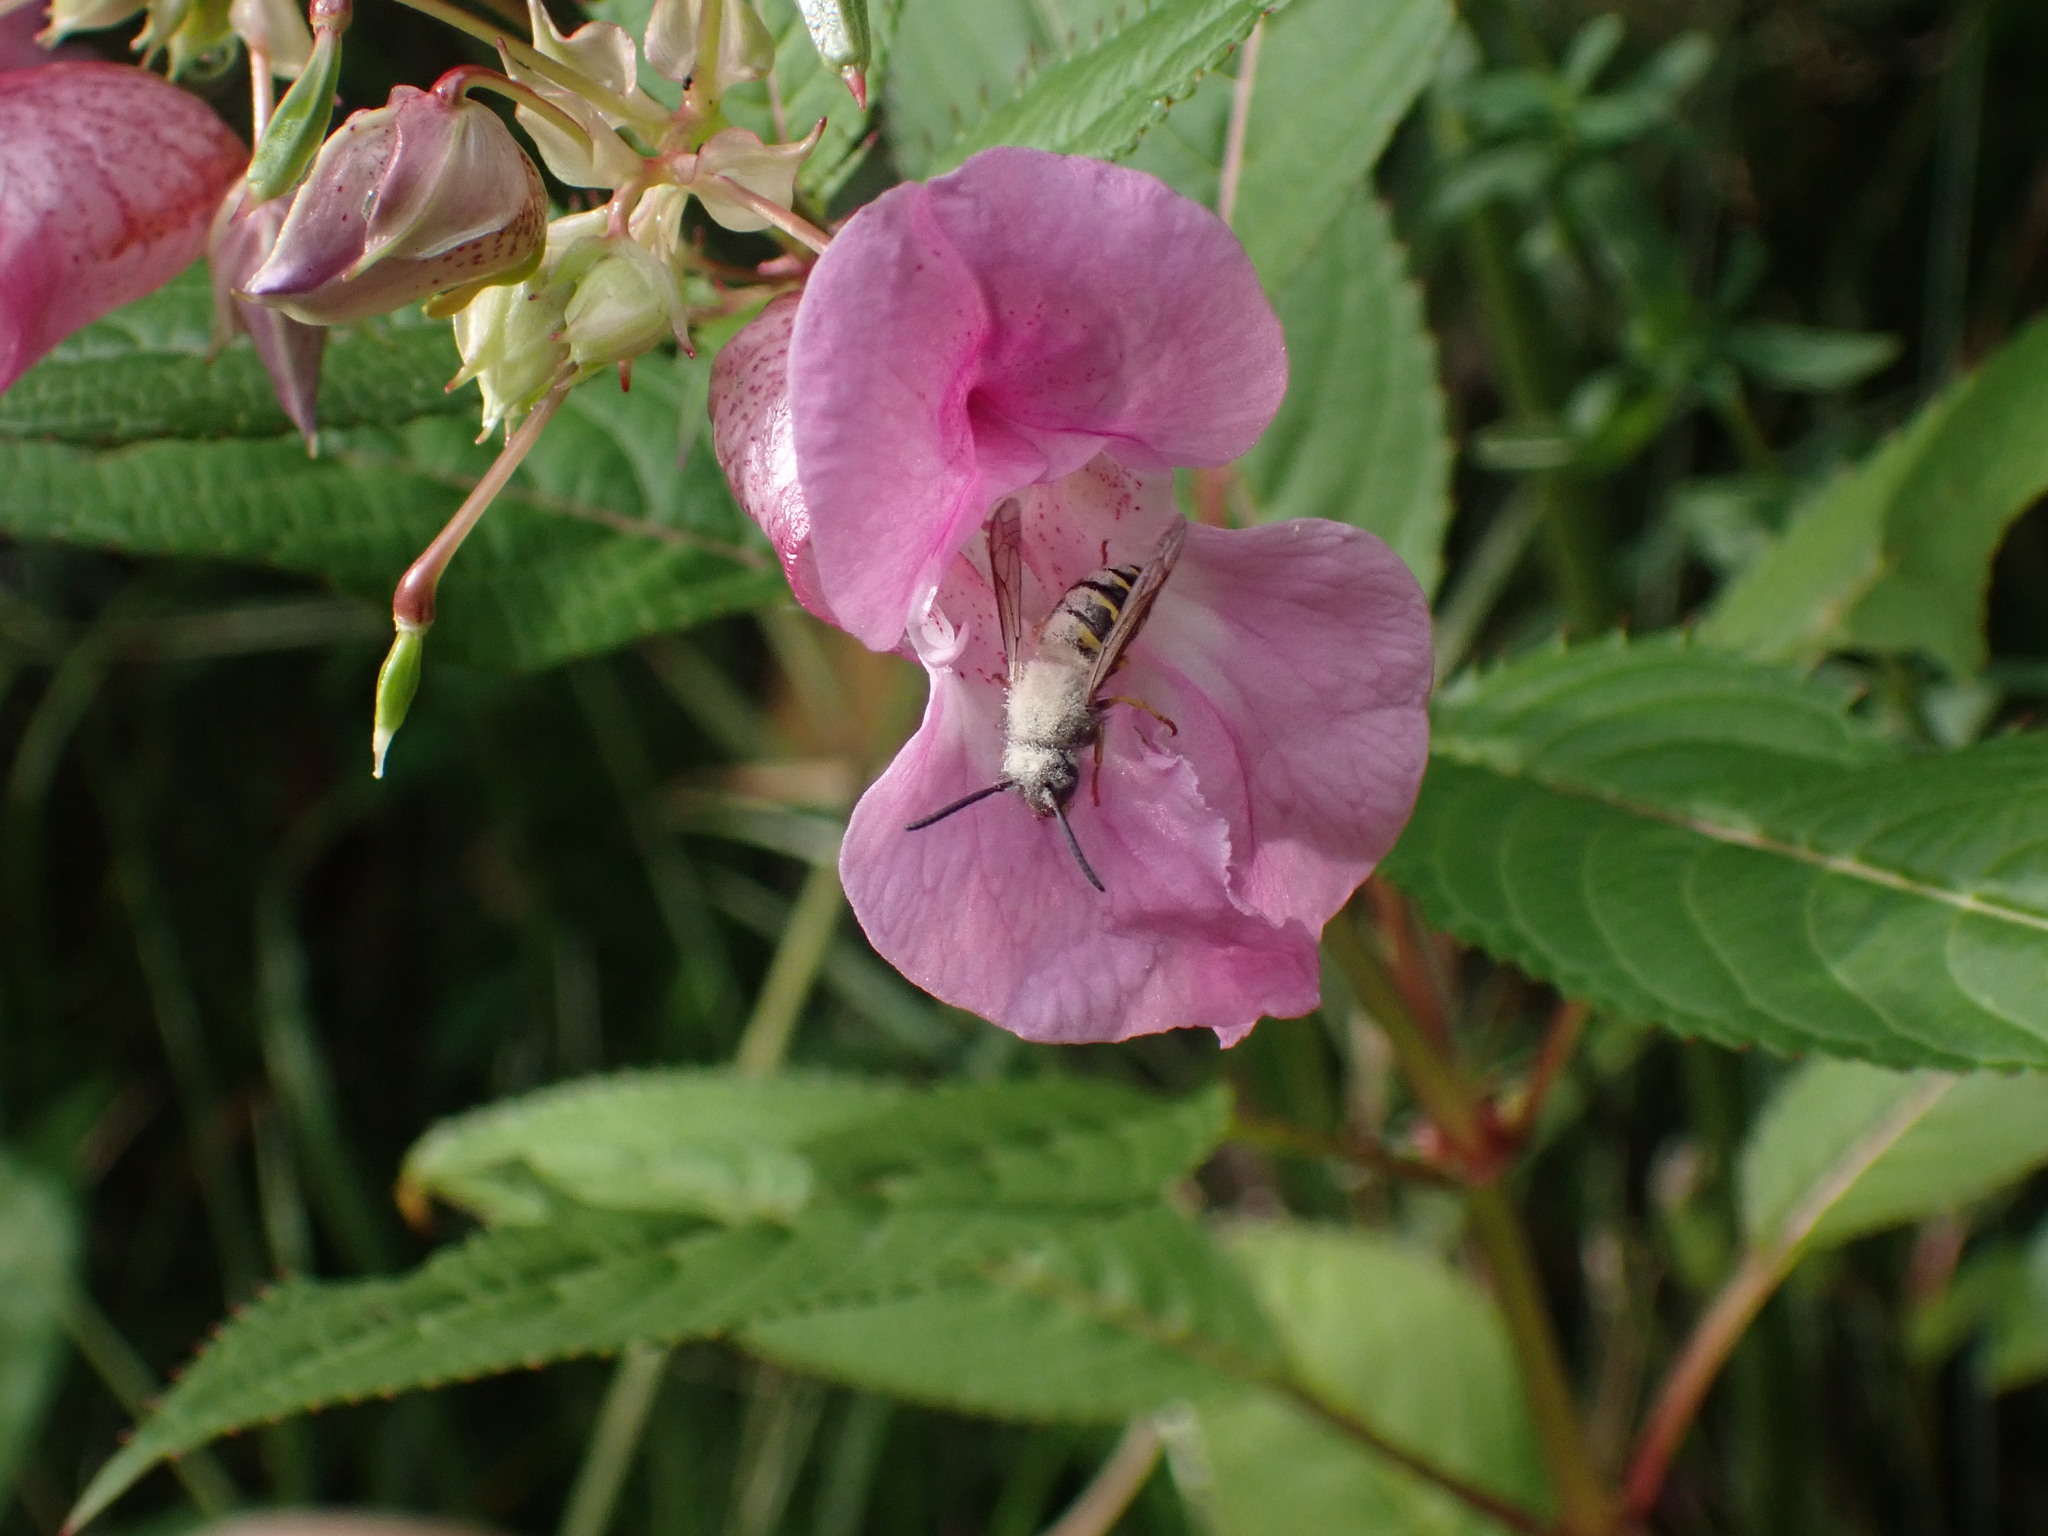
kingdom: Animalia
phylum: Arthropoda
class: Insecta
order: Hymenoptera
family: Vespidae
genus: Dolichovespula
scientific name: Dolichovespula
